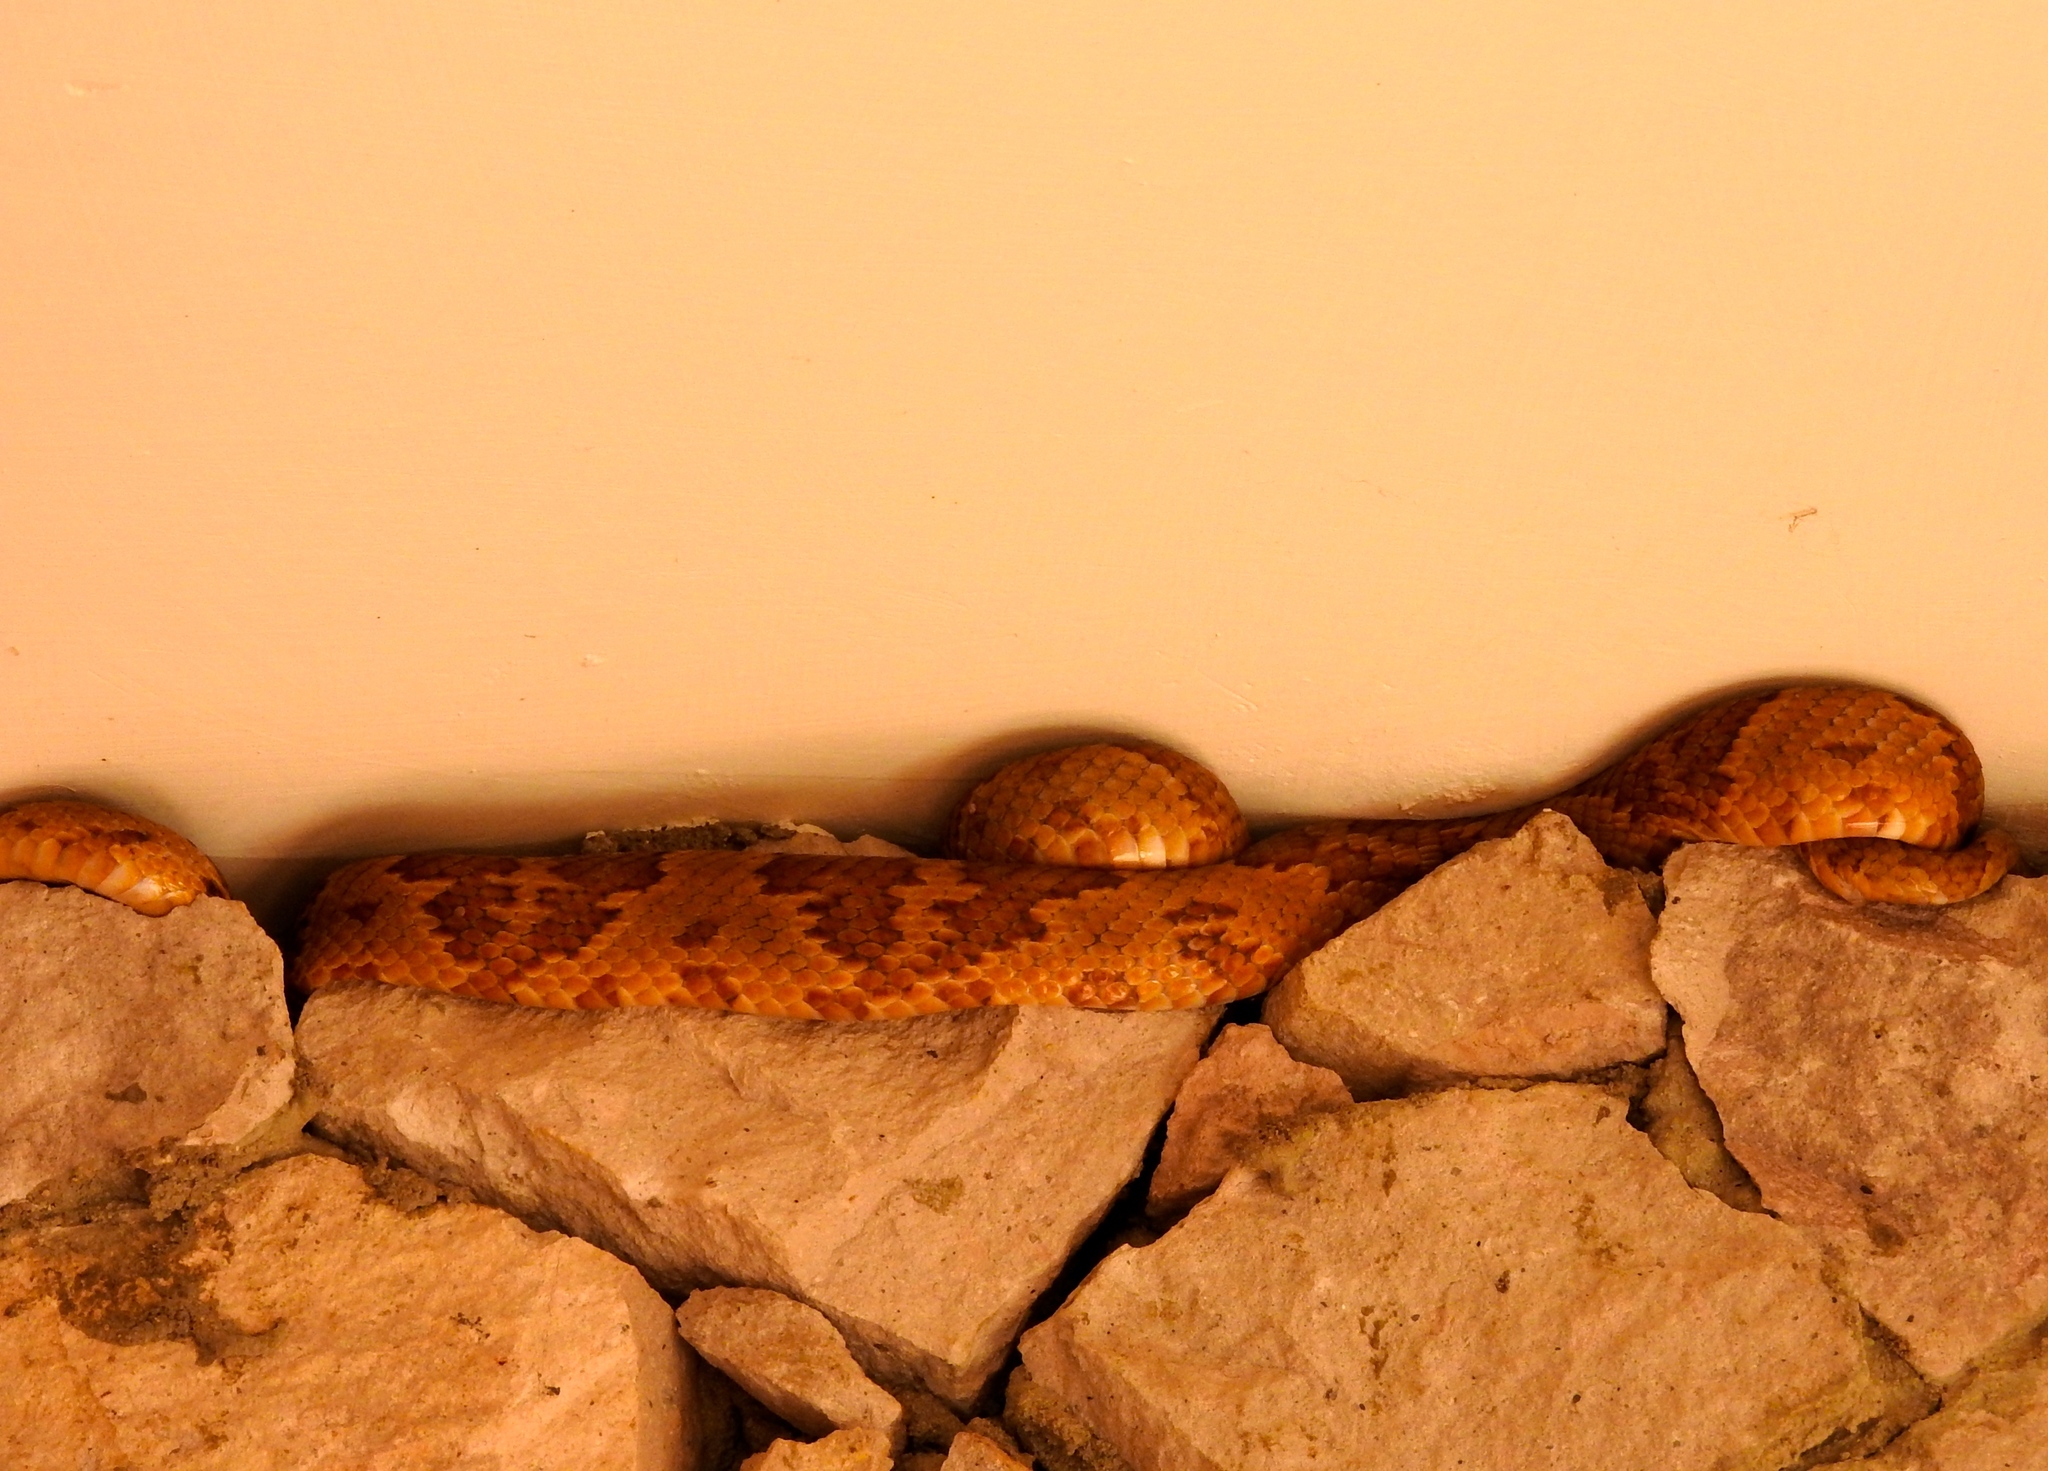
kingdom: Animalia
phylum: Chordata
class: Squamata
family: Colubridae
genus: Trimorphodon
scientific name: Trimorphodon paucimaculatus
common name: Sinaloan lyresnake
